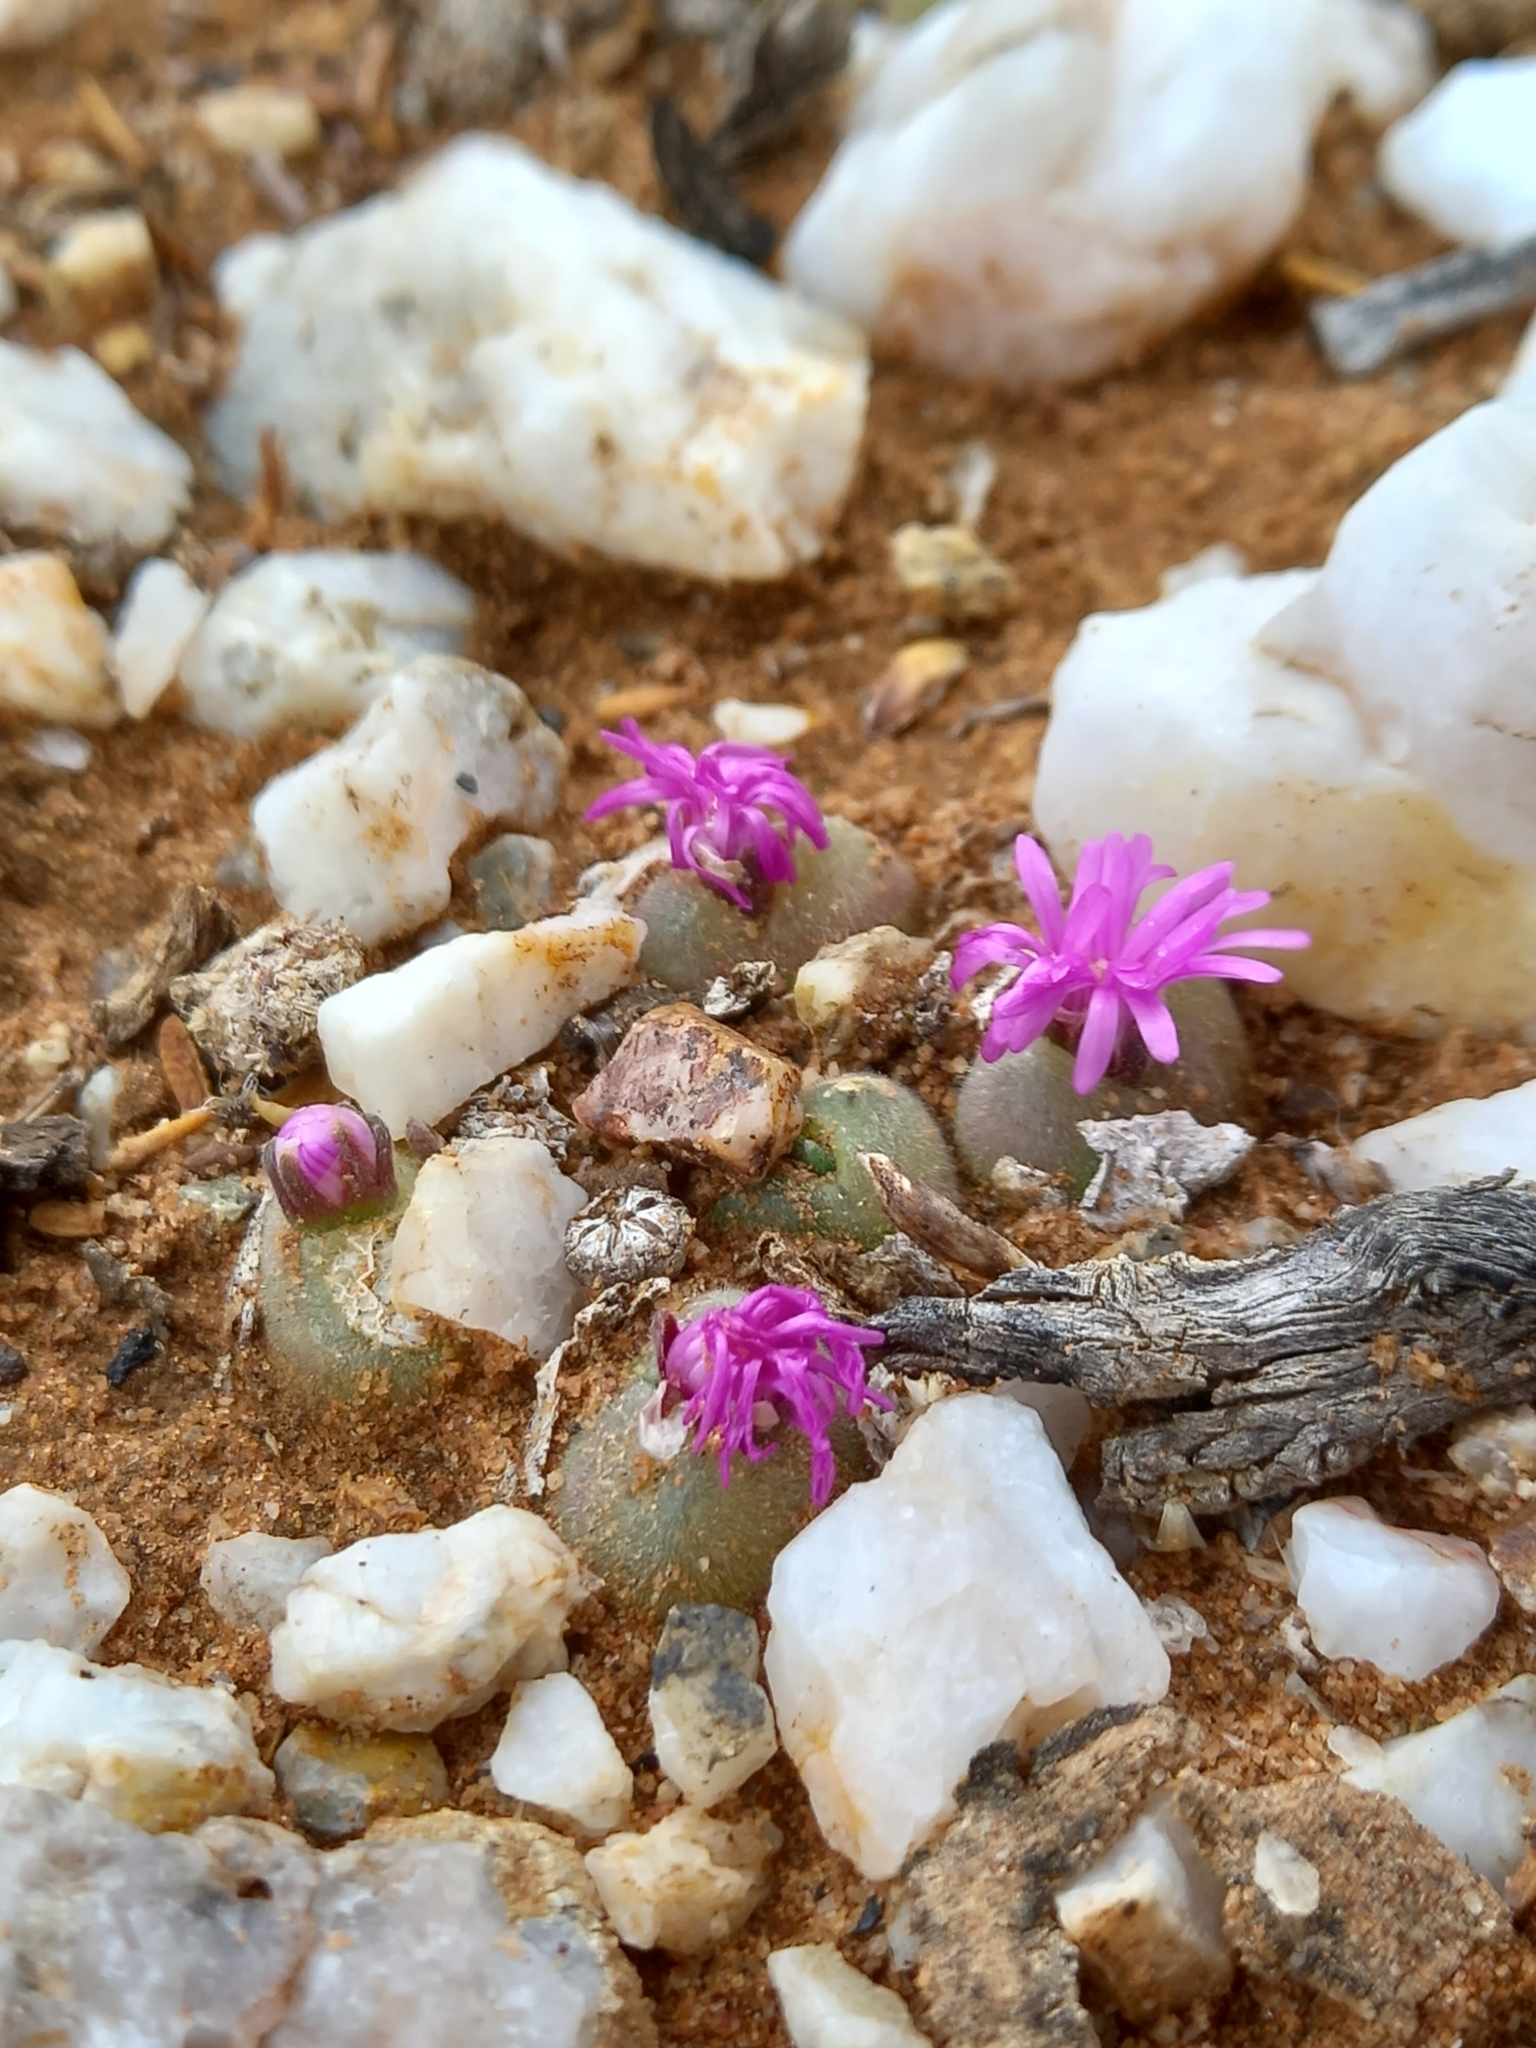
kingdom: Plantae
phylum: Tracheophyta
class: Magnoliopsida
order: Caryophyllales
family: Aizoaceae
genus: Gibbaeum
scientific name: Gibbaeum pilosulum
